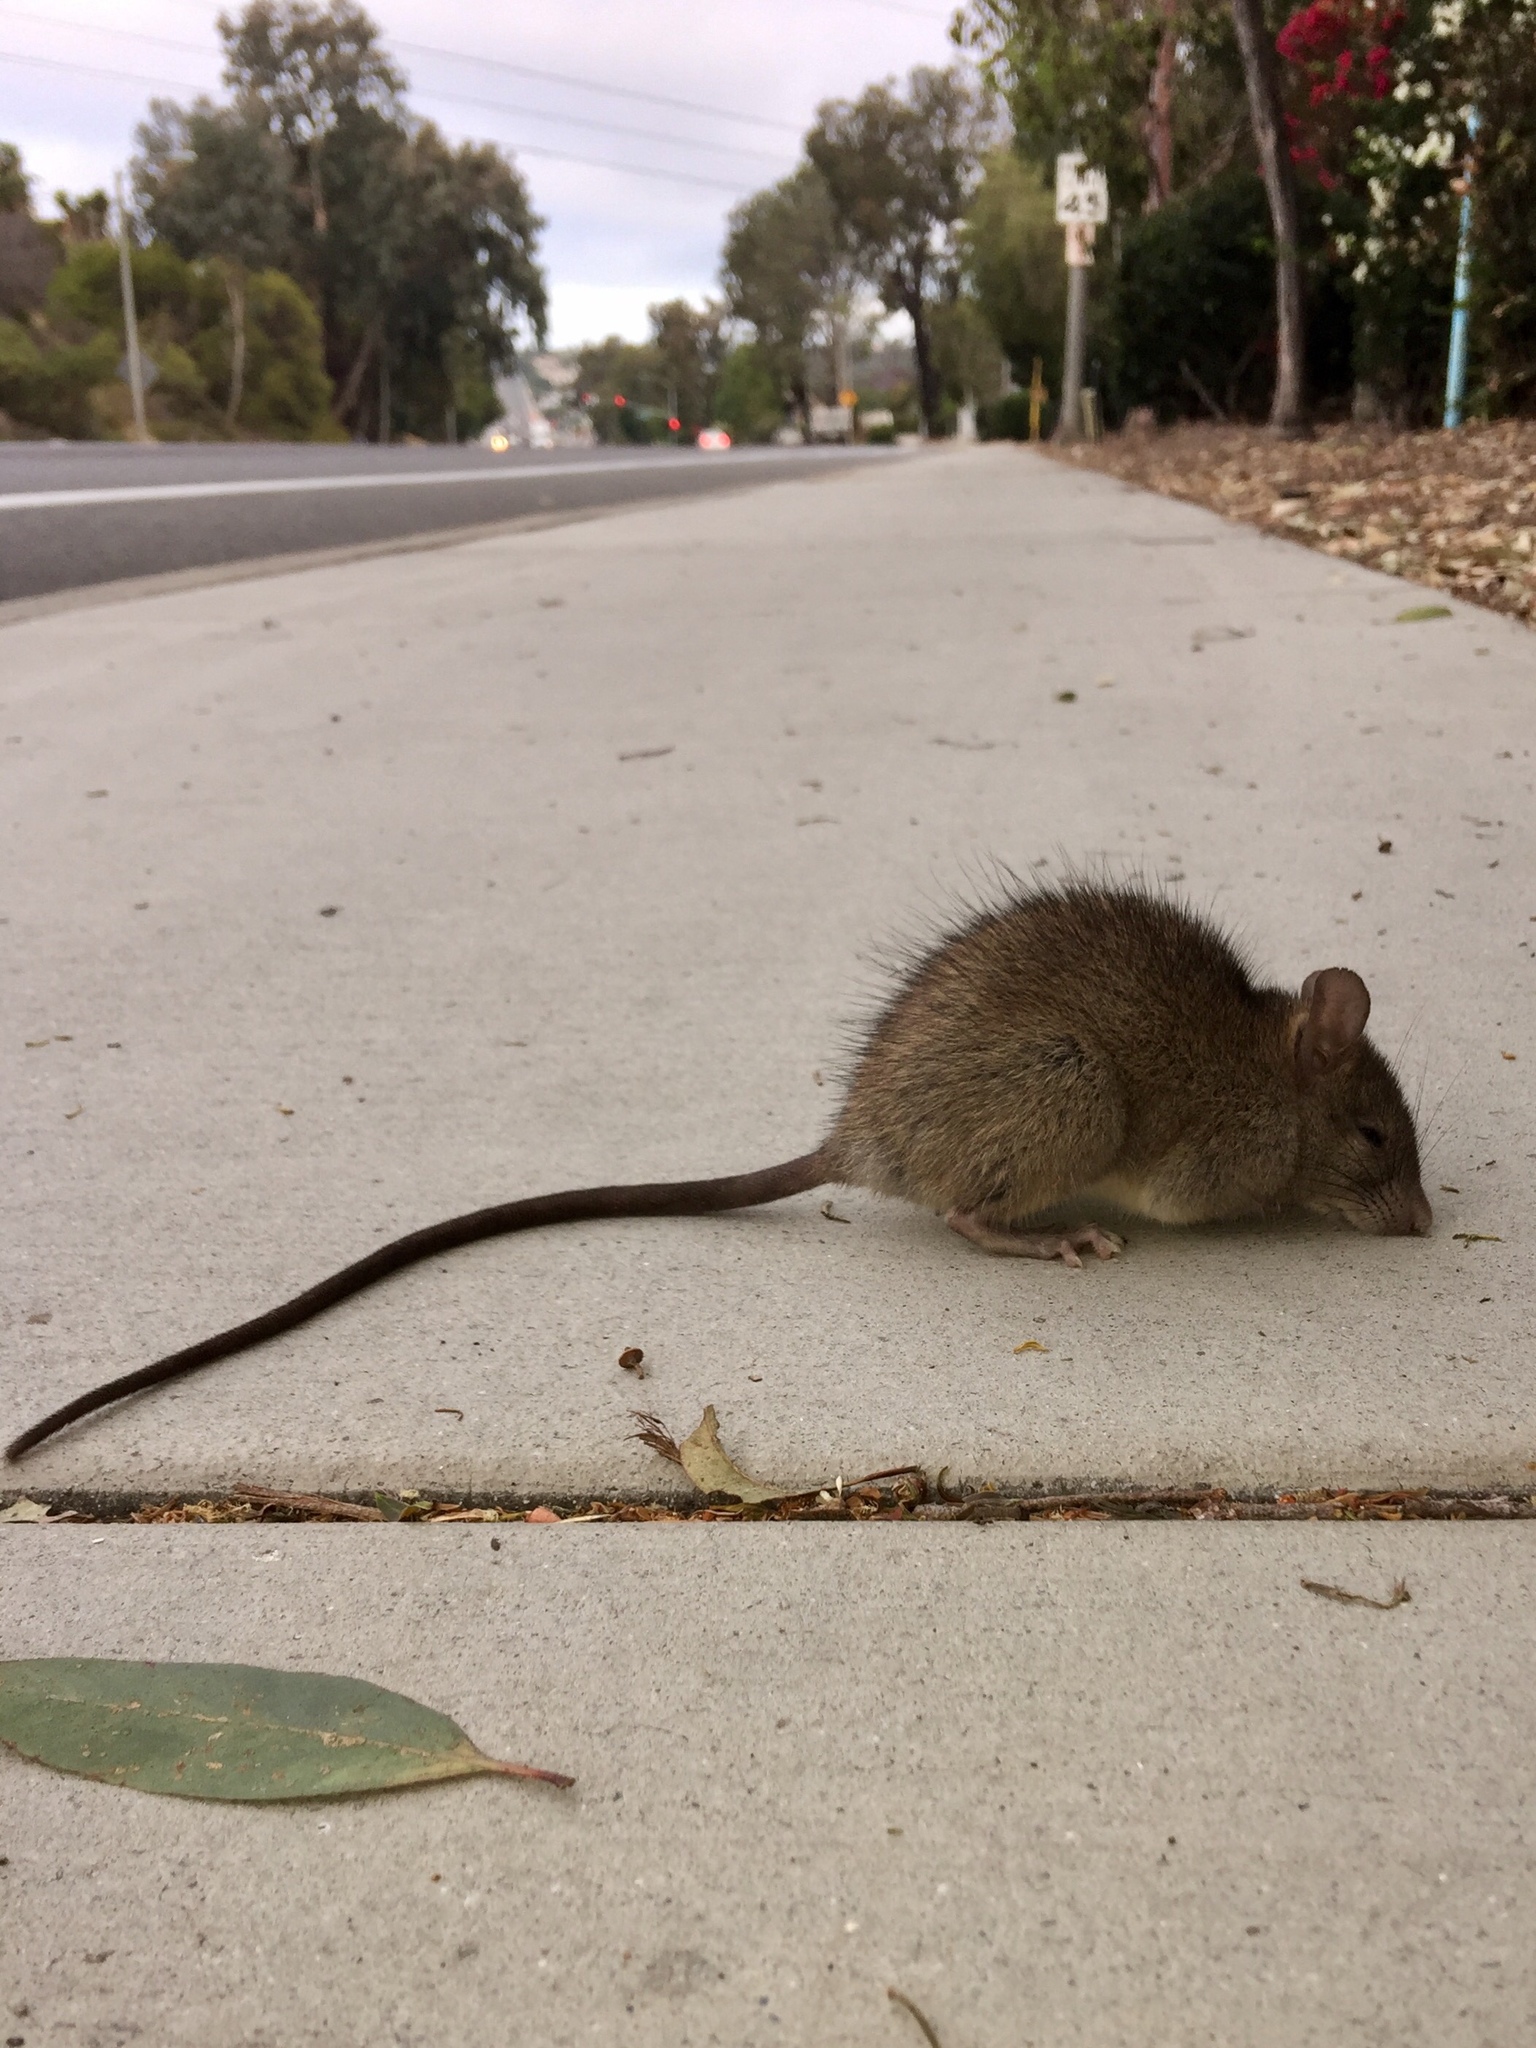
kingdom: Animalia
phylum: Chordata
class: Mammalia
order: Rodentia
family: Muridae
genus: Rattus
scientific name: Rattus rattus
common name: Black rat
